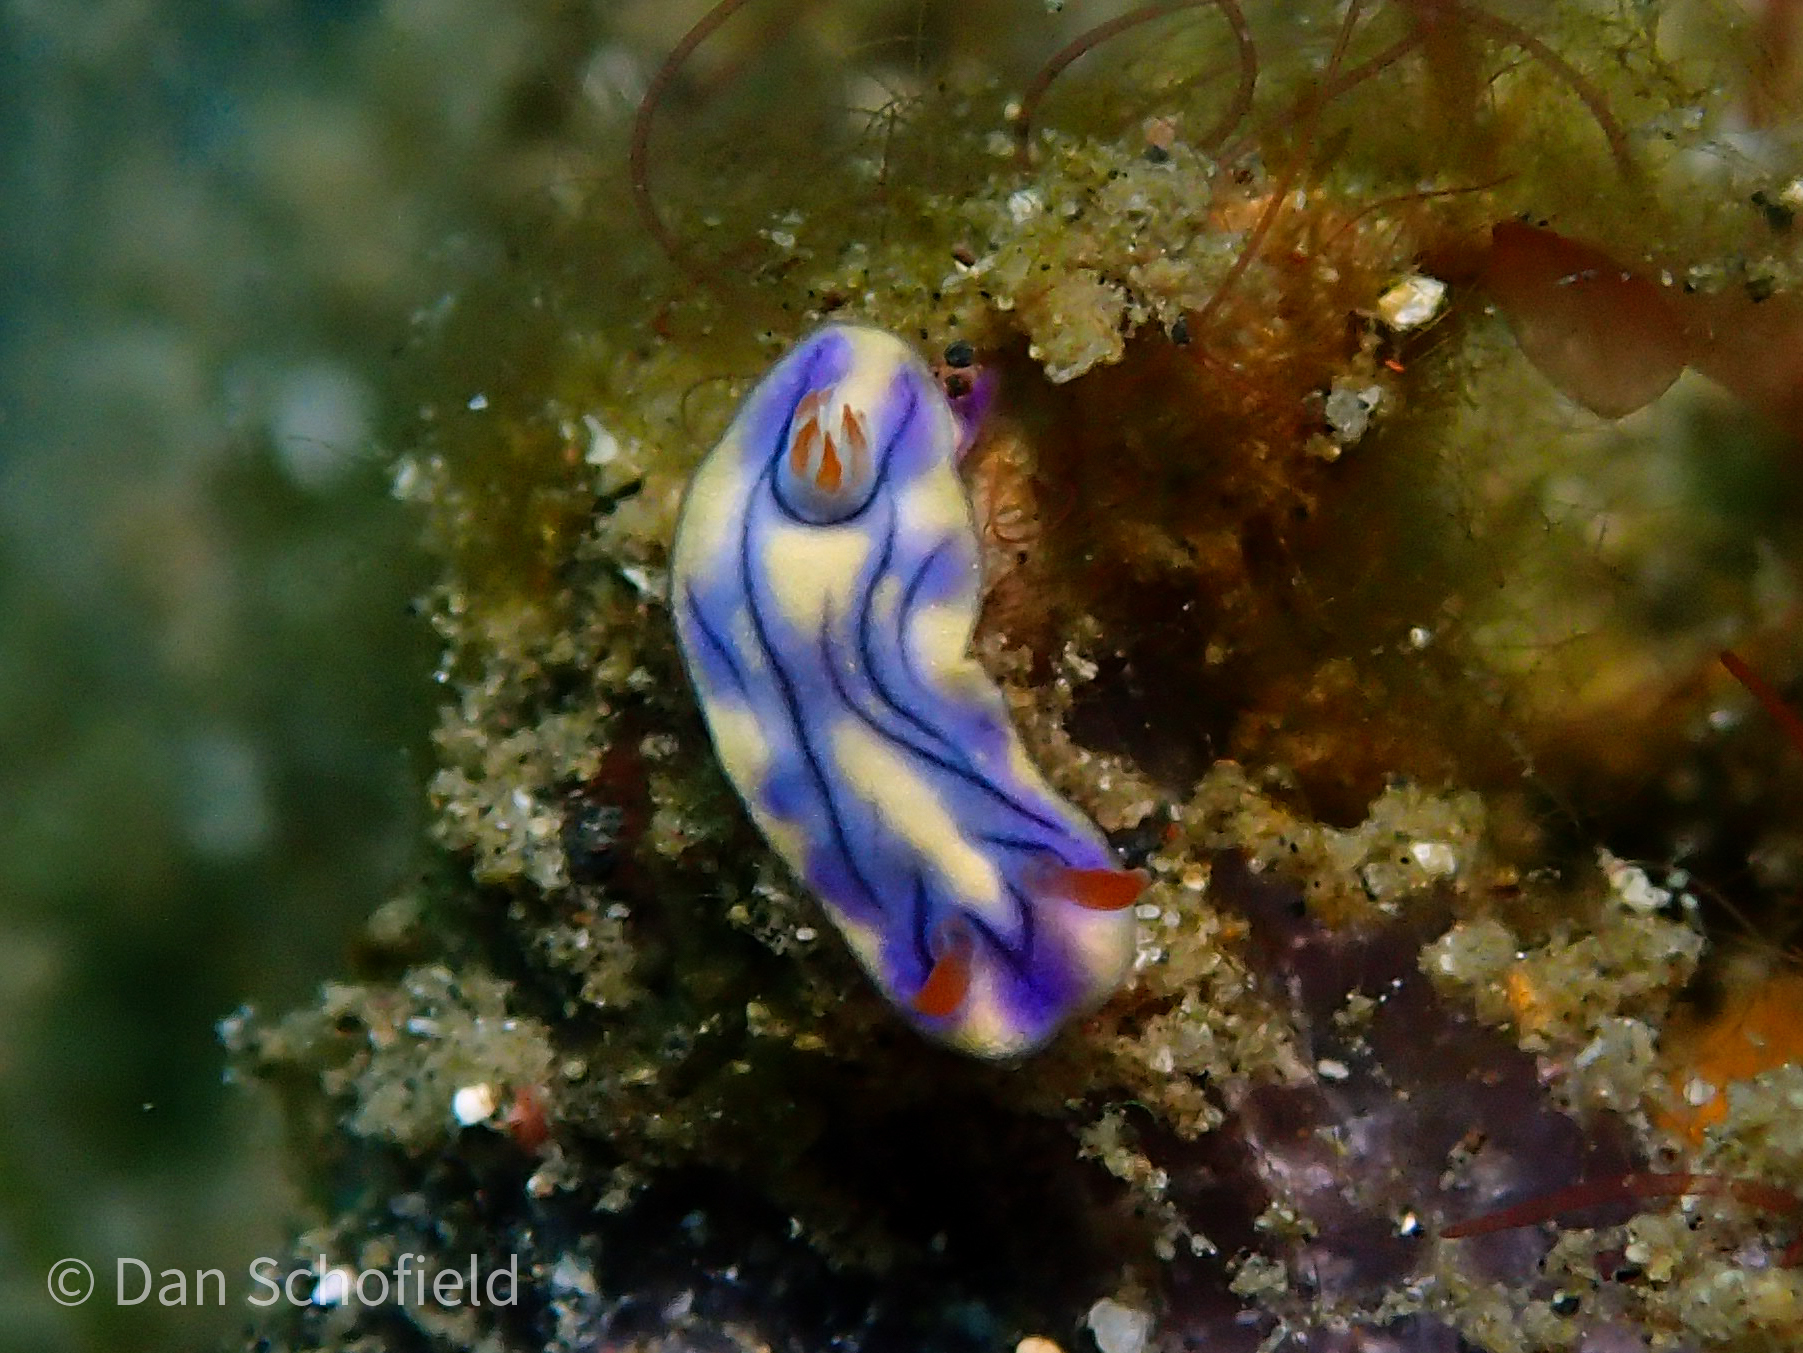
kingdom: Animalia
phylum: Mollusca
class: Gastropoda
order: Nudibranchia
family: Chromodorididae
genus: Hypselodoris
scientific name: Hypselodoris zephyra
